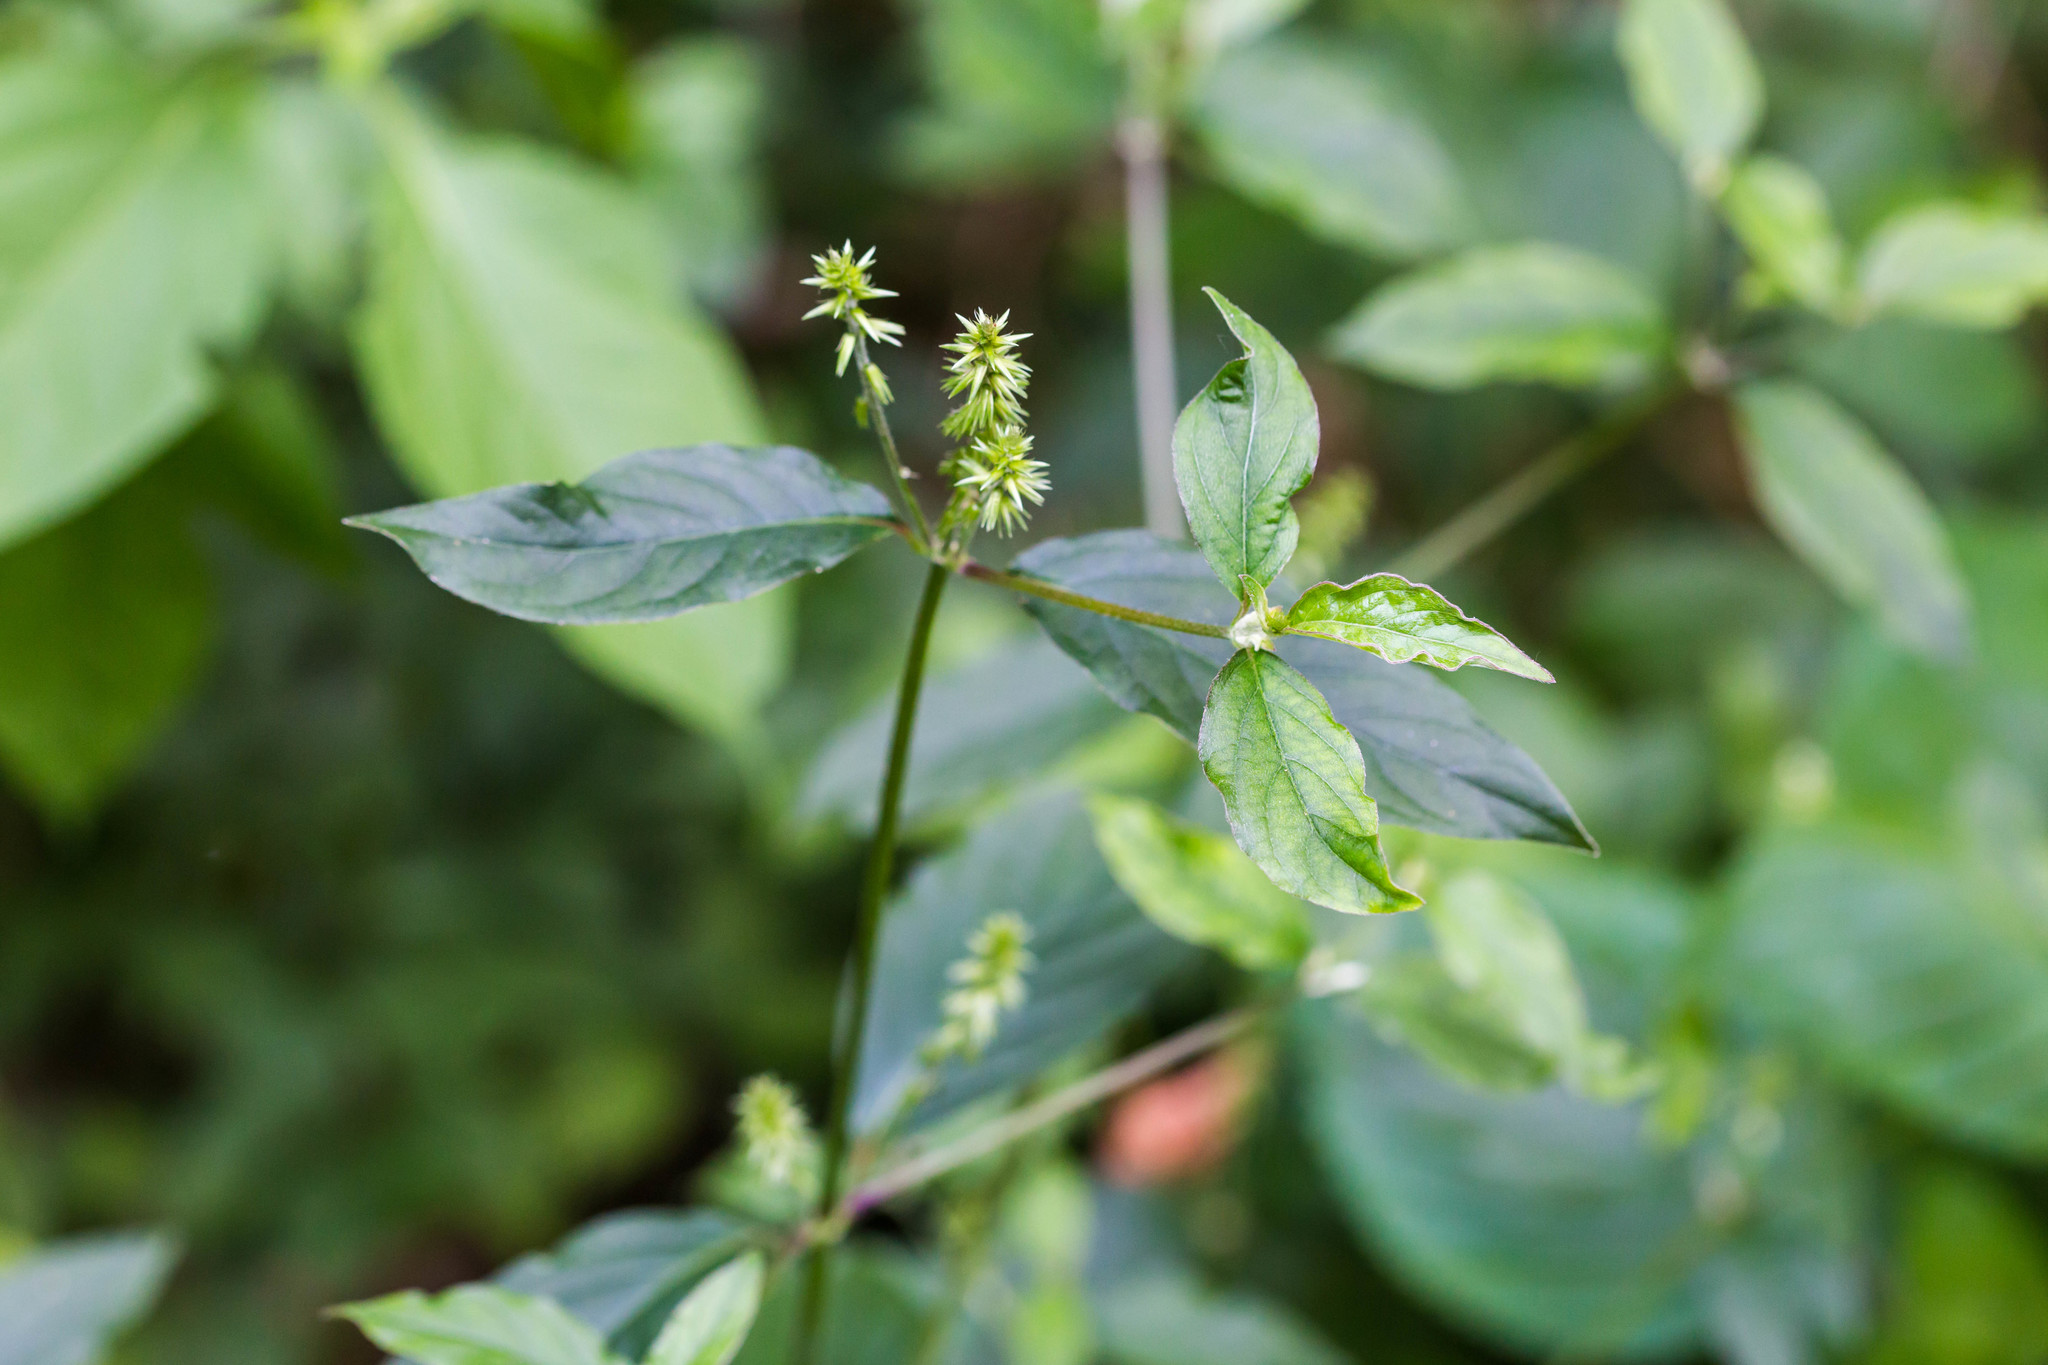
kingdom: Plantae
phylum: Tracheophyta
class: Magnoliopsida
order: Caryophyllales
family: Amaranthaceae
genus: Achyranthes
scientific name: Achyranthes bidentata
